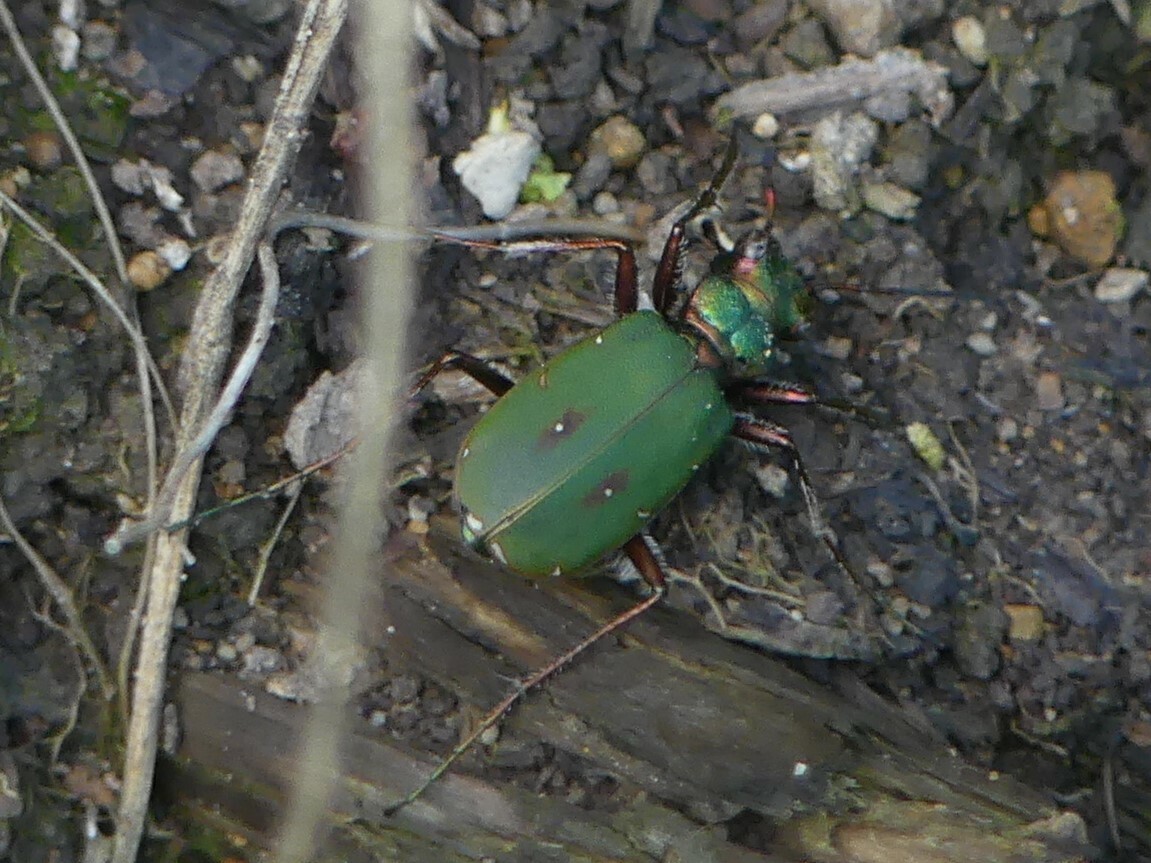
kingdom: Animalia
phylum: Arthropoda
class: Insecta
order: Coleoptera
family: Carabidae
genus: Cicindela
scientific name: Cicindela campestris
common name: Common tiger beetle
